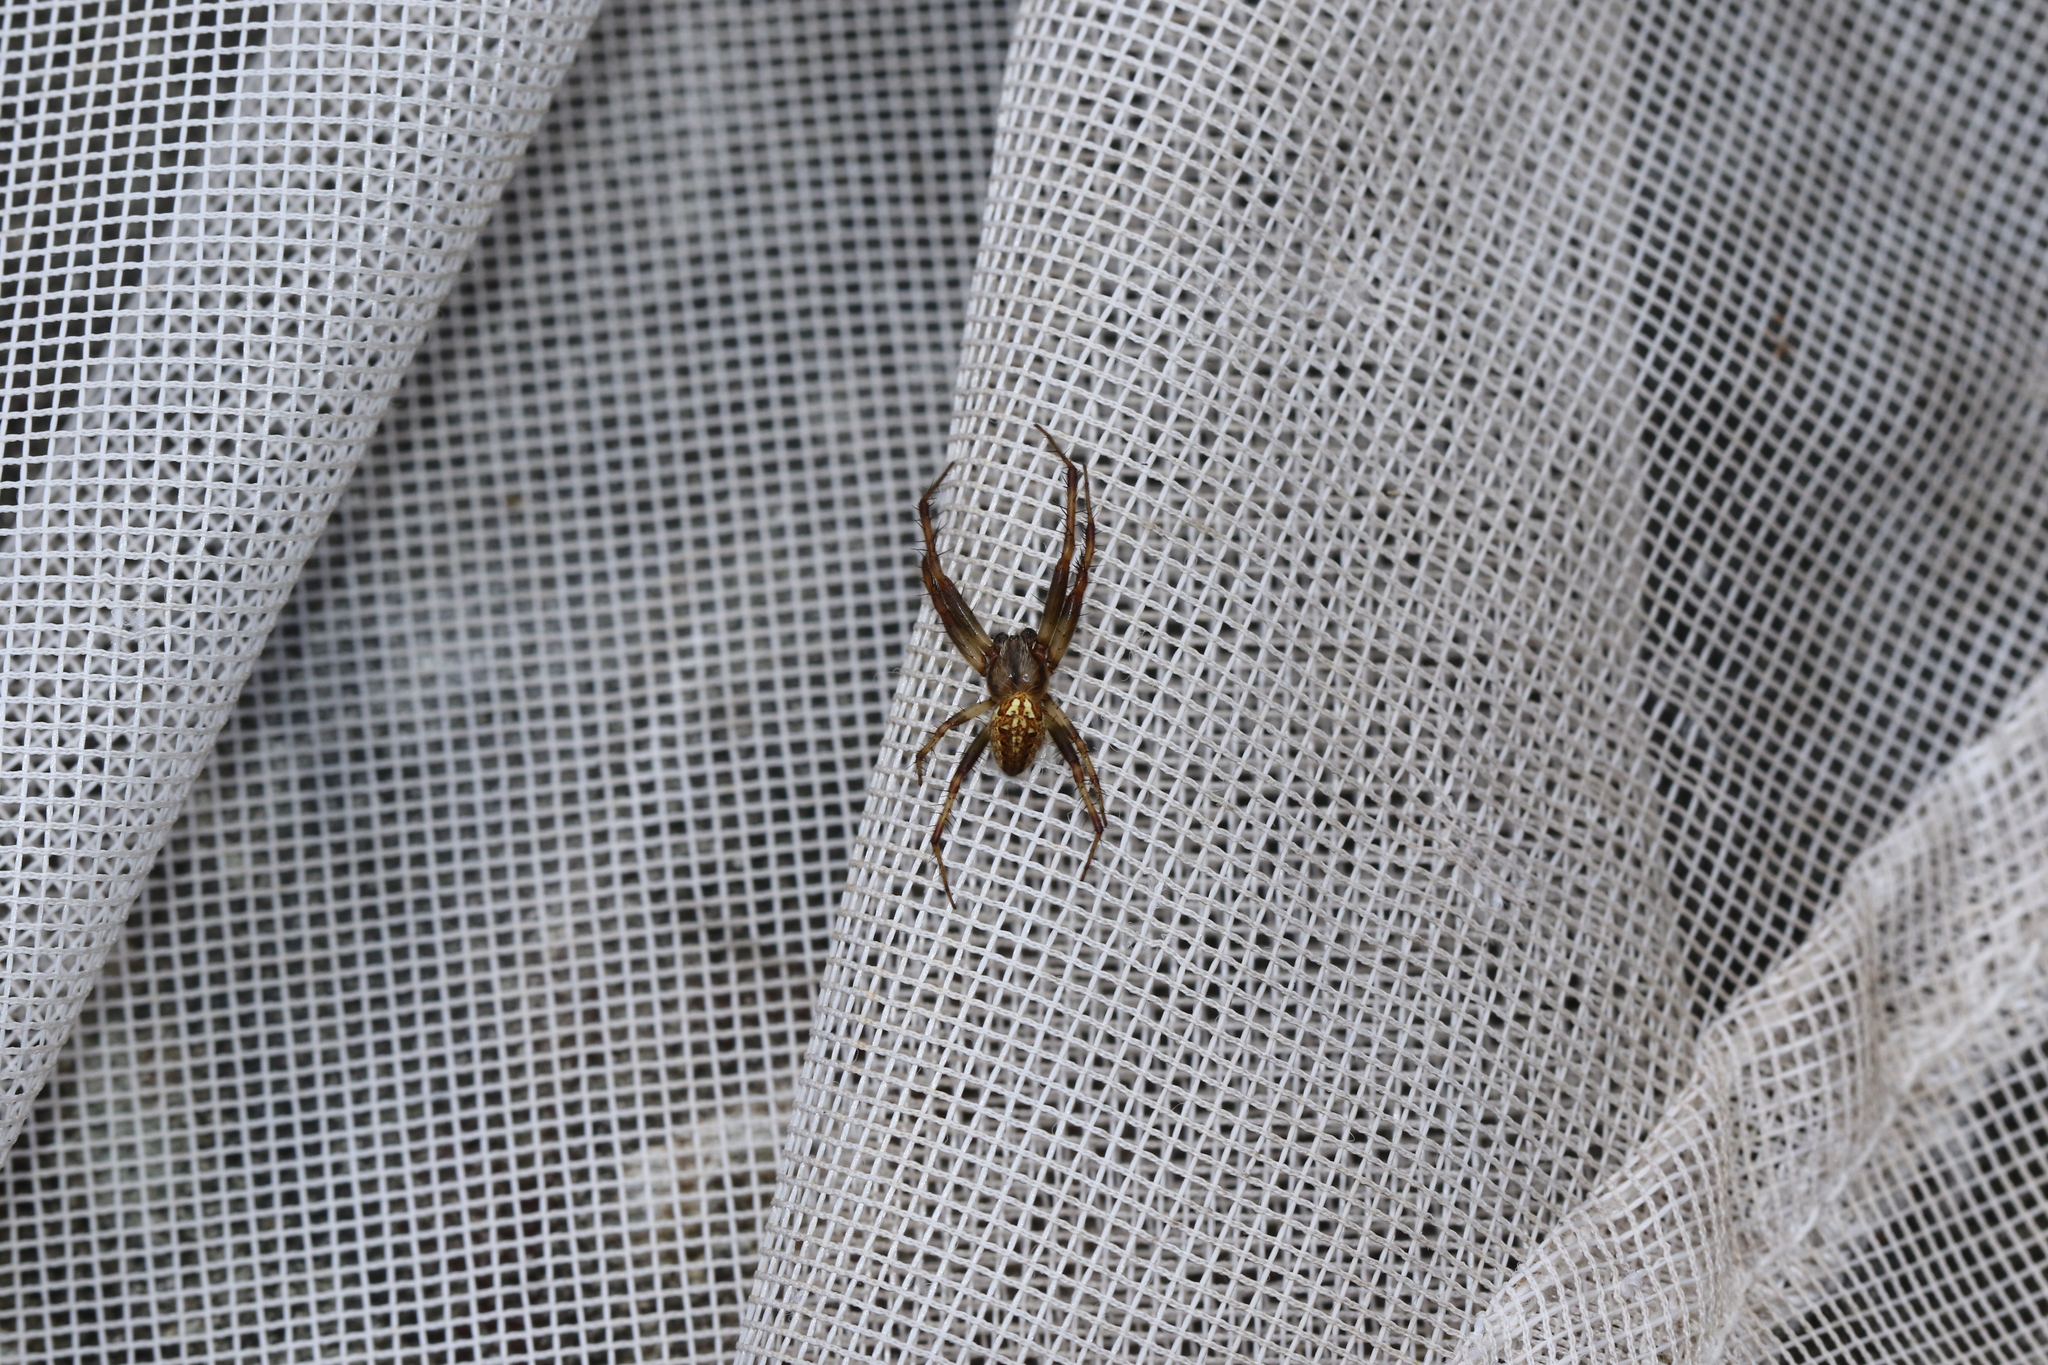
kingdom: Animalia
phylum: Arthropoda
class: Arachnida
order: Araneae
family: Araneidae
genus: Neoscona
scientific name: Neoscona arabesca
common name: Orb weavers
